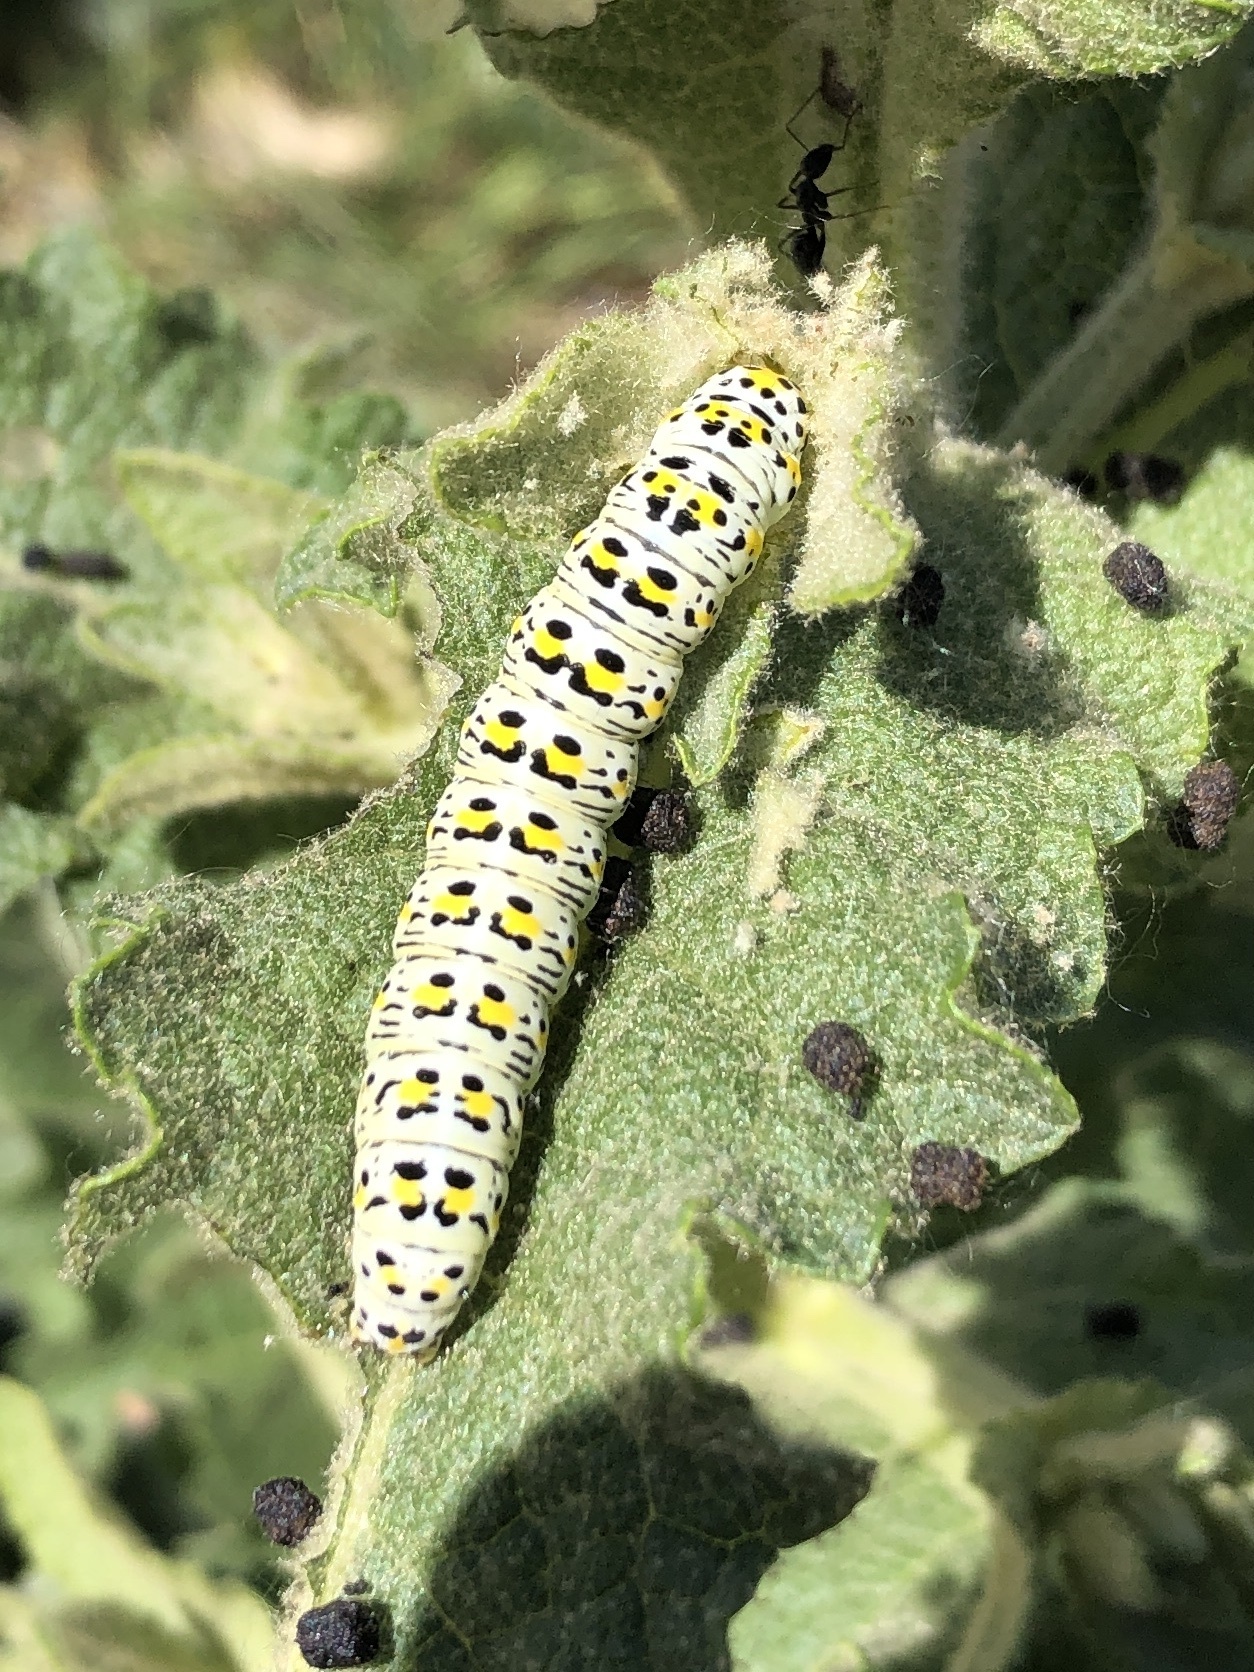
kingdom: Animalia
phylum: Arthropoda
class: Insecta
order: Lepidoptera
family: Noctuidae
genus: Cucullia
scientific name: Cucullia verbasci
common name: Mullein
